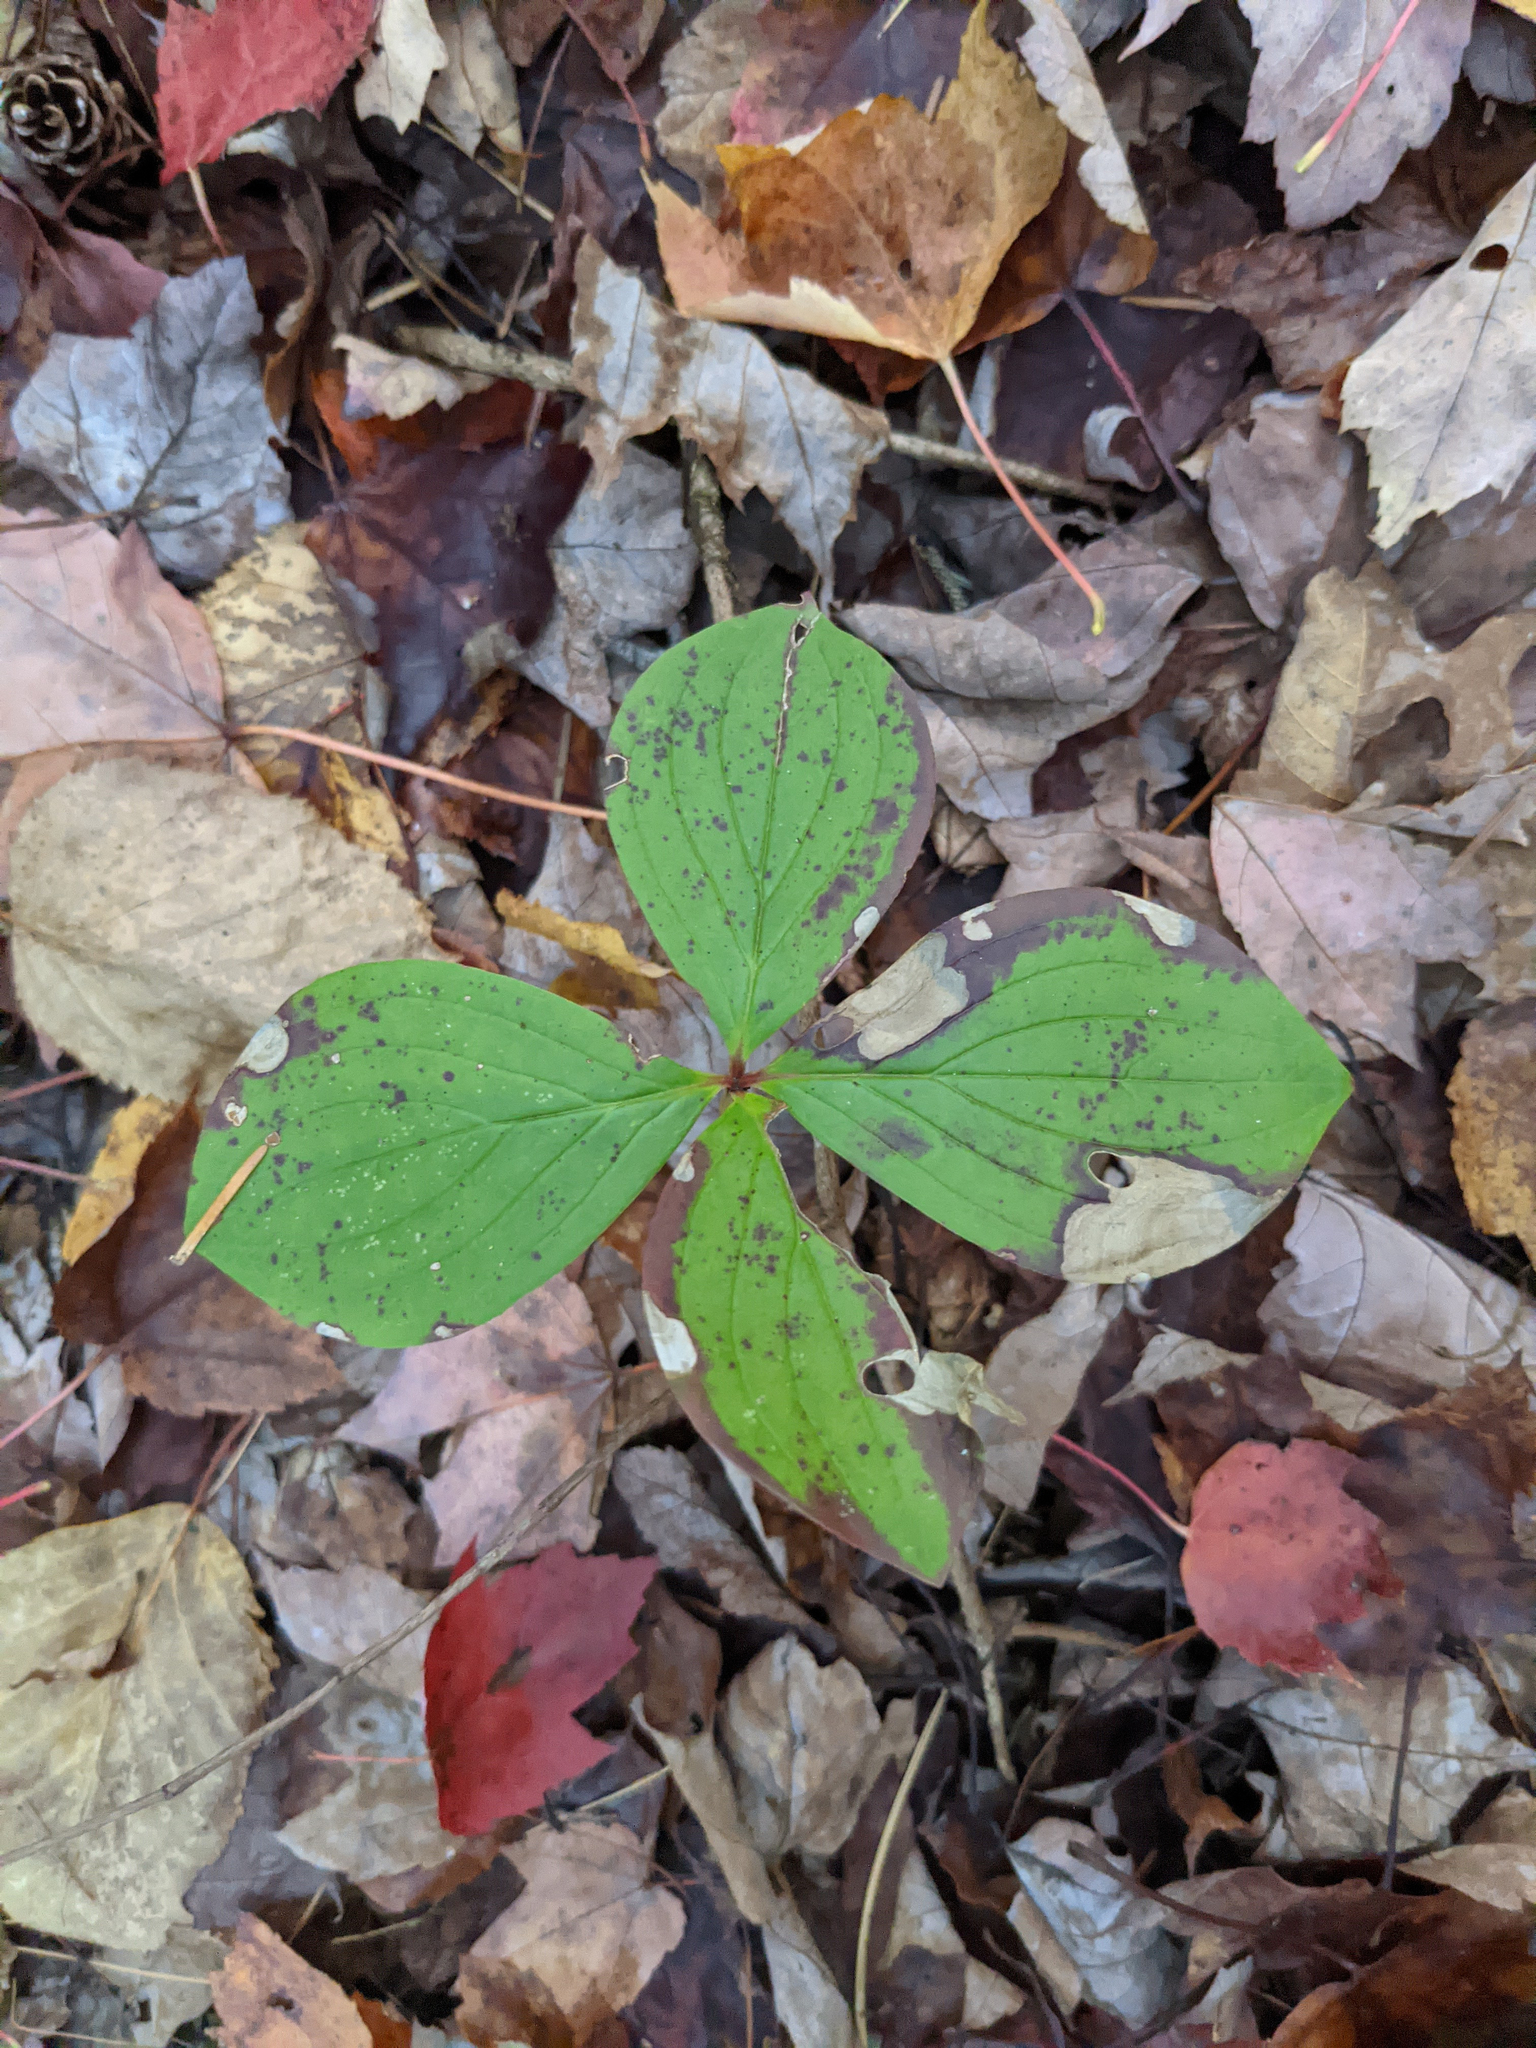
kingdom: Plantae
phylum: Tracheophyta
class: Magnoliopsida
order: Cornales
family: Cornaceae
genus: Cornus
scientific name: Cornus canadensis
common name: Creeping dogwood
